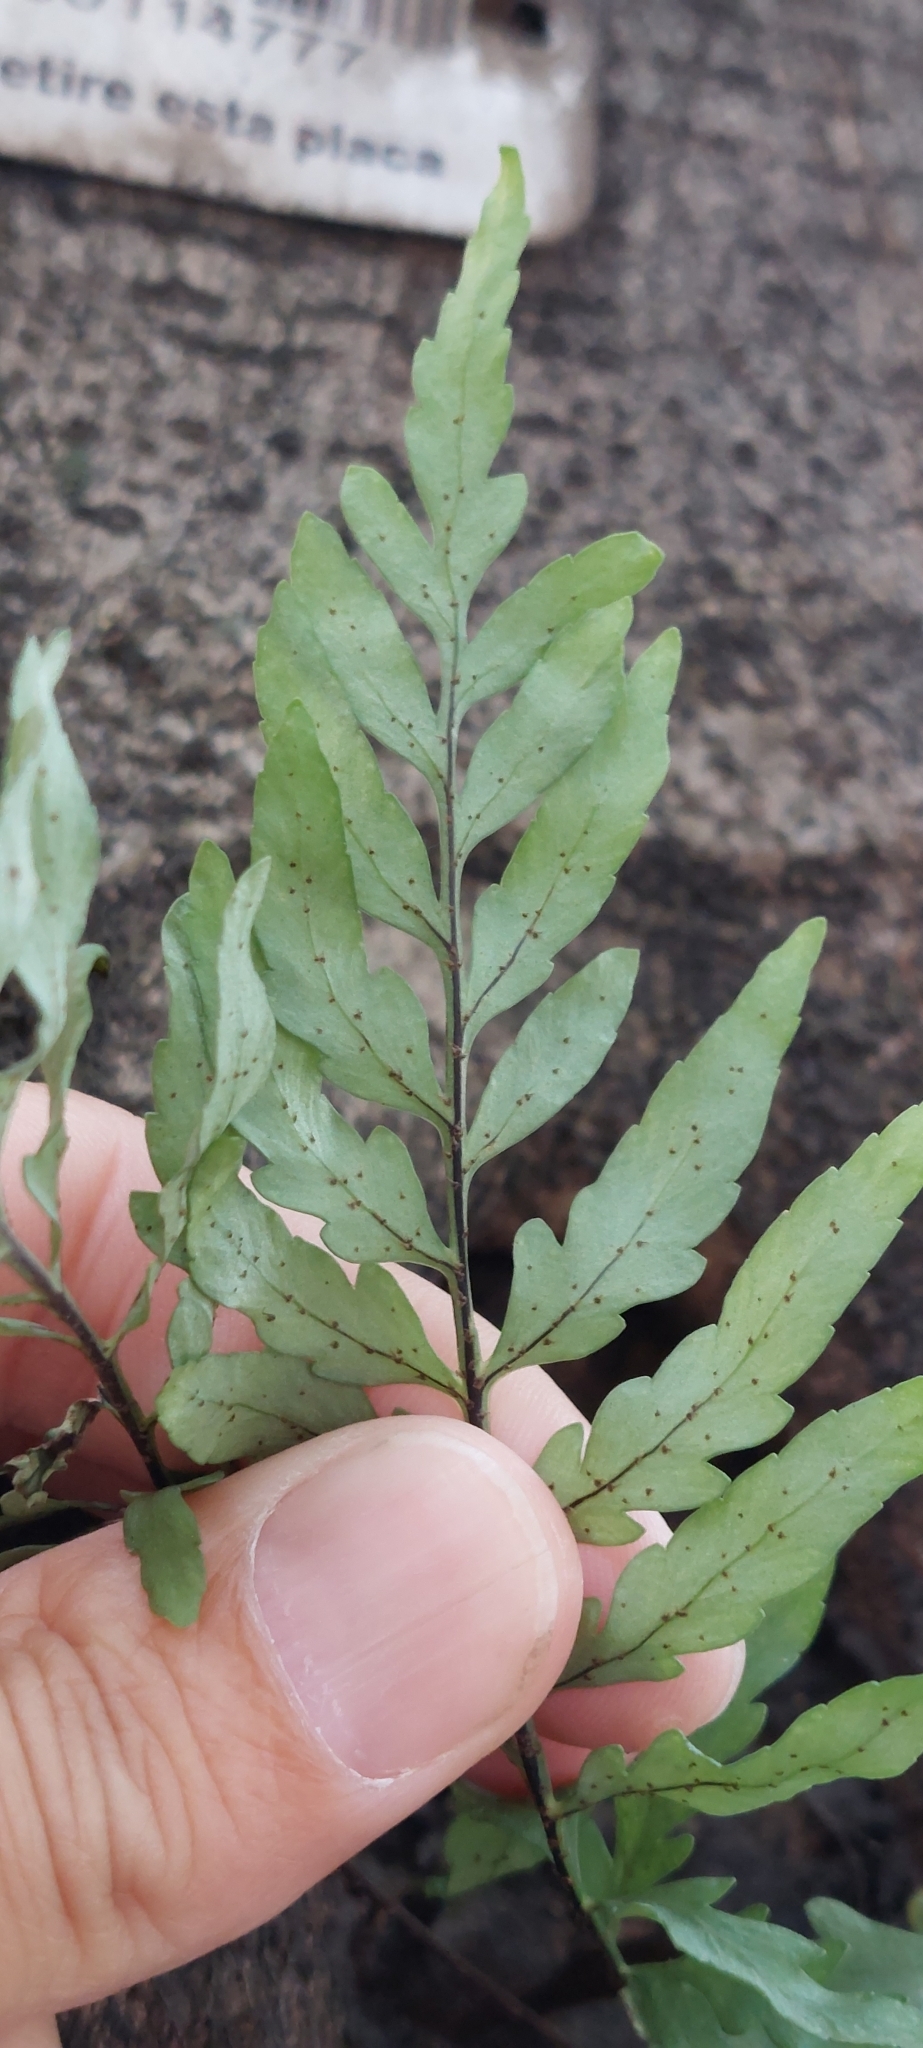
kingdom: Plantae
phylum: Tracheophyta
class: Polypodiopsida
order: Polypodiales
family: Polypodiaceae
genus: Pleopeltis
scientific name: Pleopeltis murora
